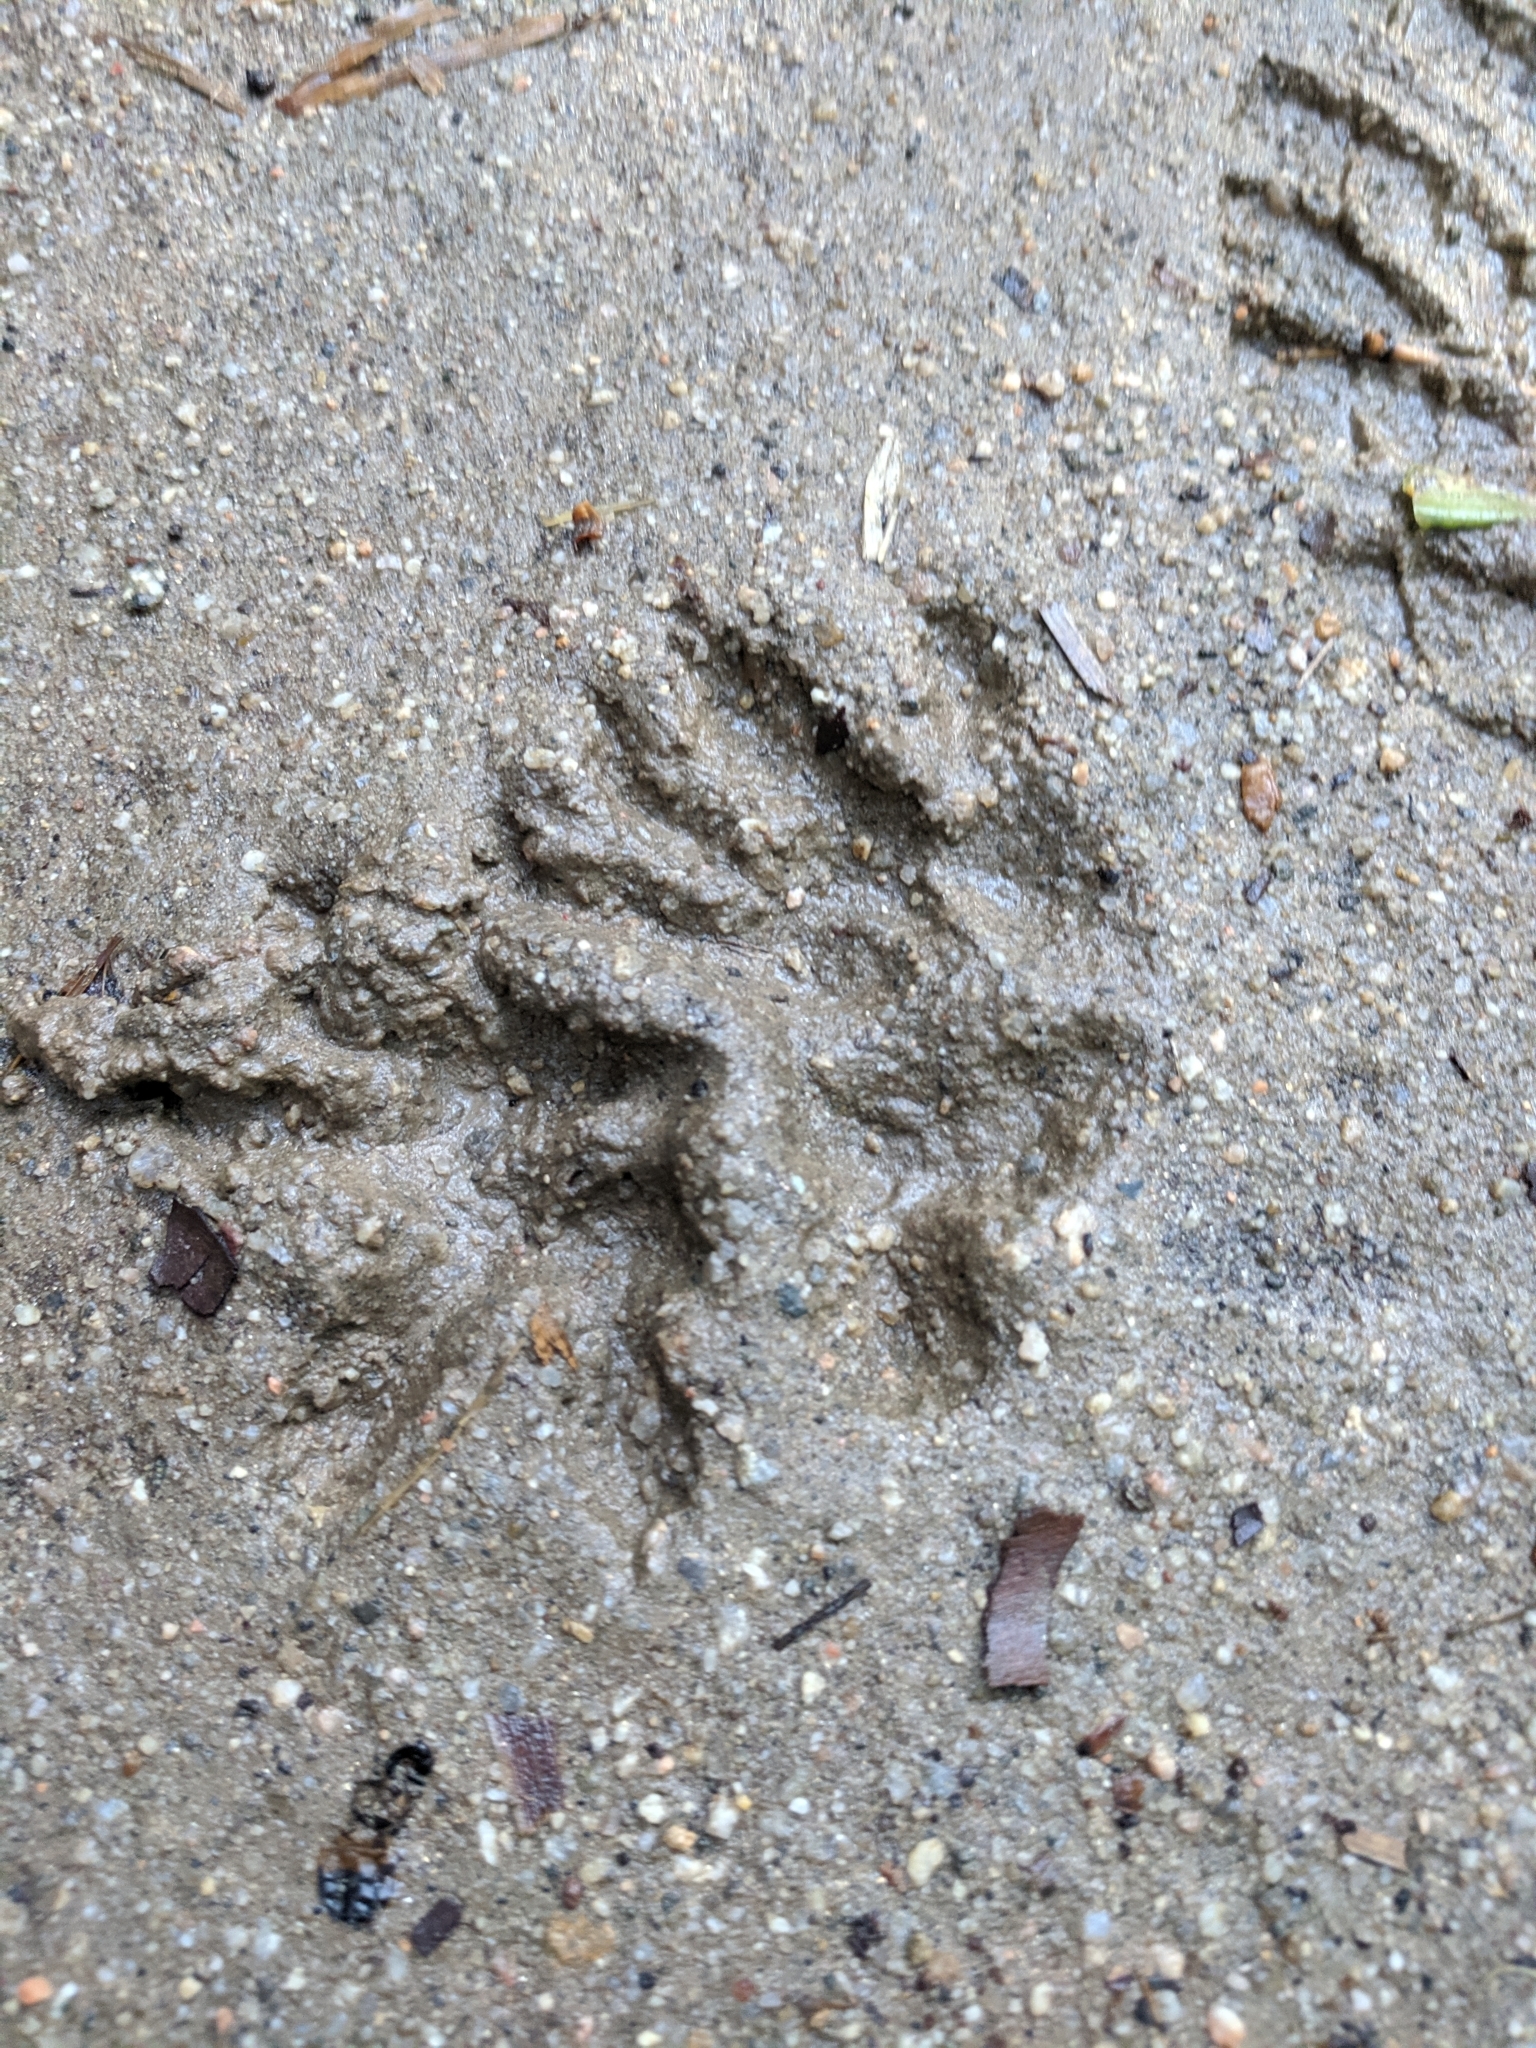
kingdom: Animalia
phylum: Chordata
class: Mammalia
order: Didelphimorphia
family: Didelphidae
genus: Didelphis
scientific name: Didelphis virginiana
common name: Virginia opossum
